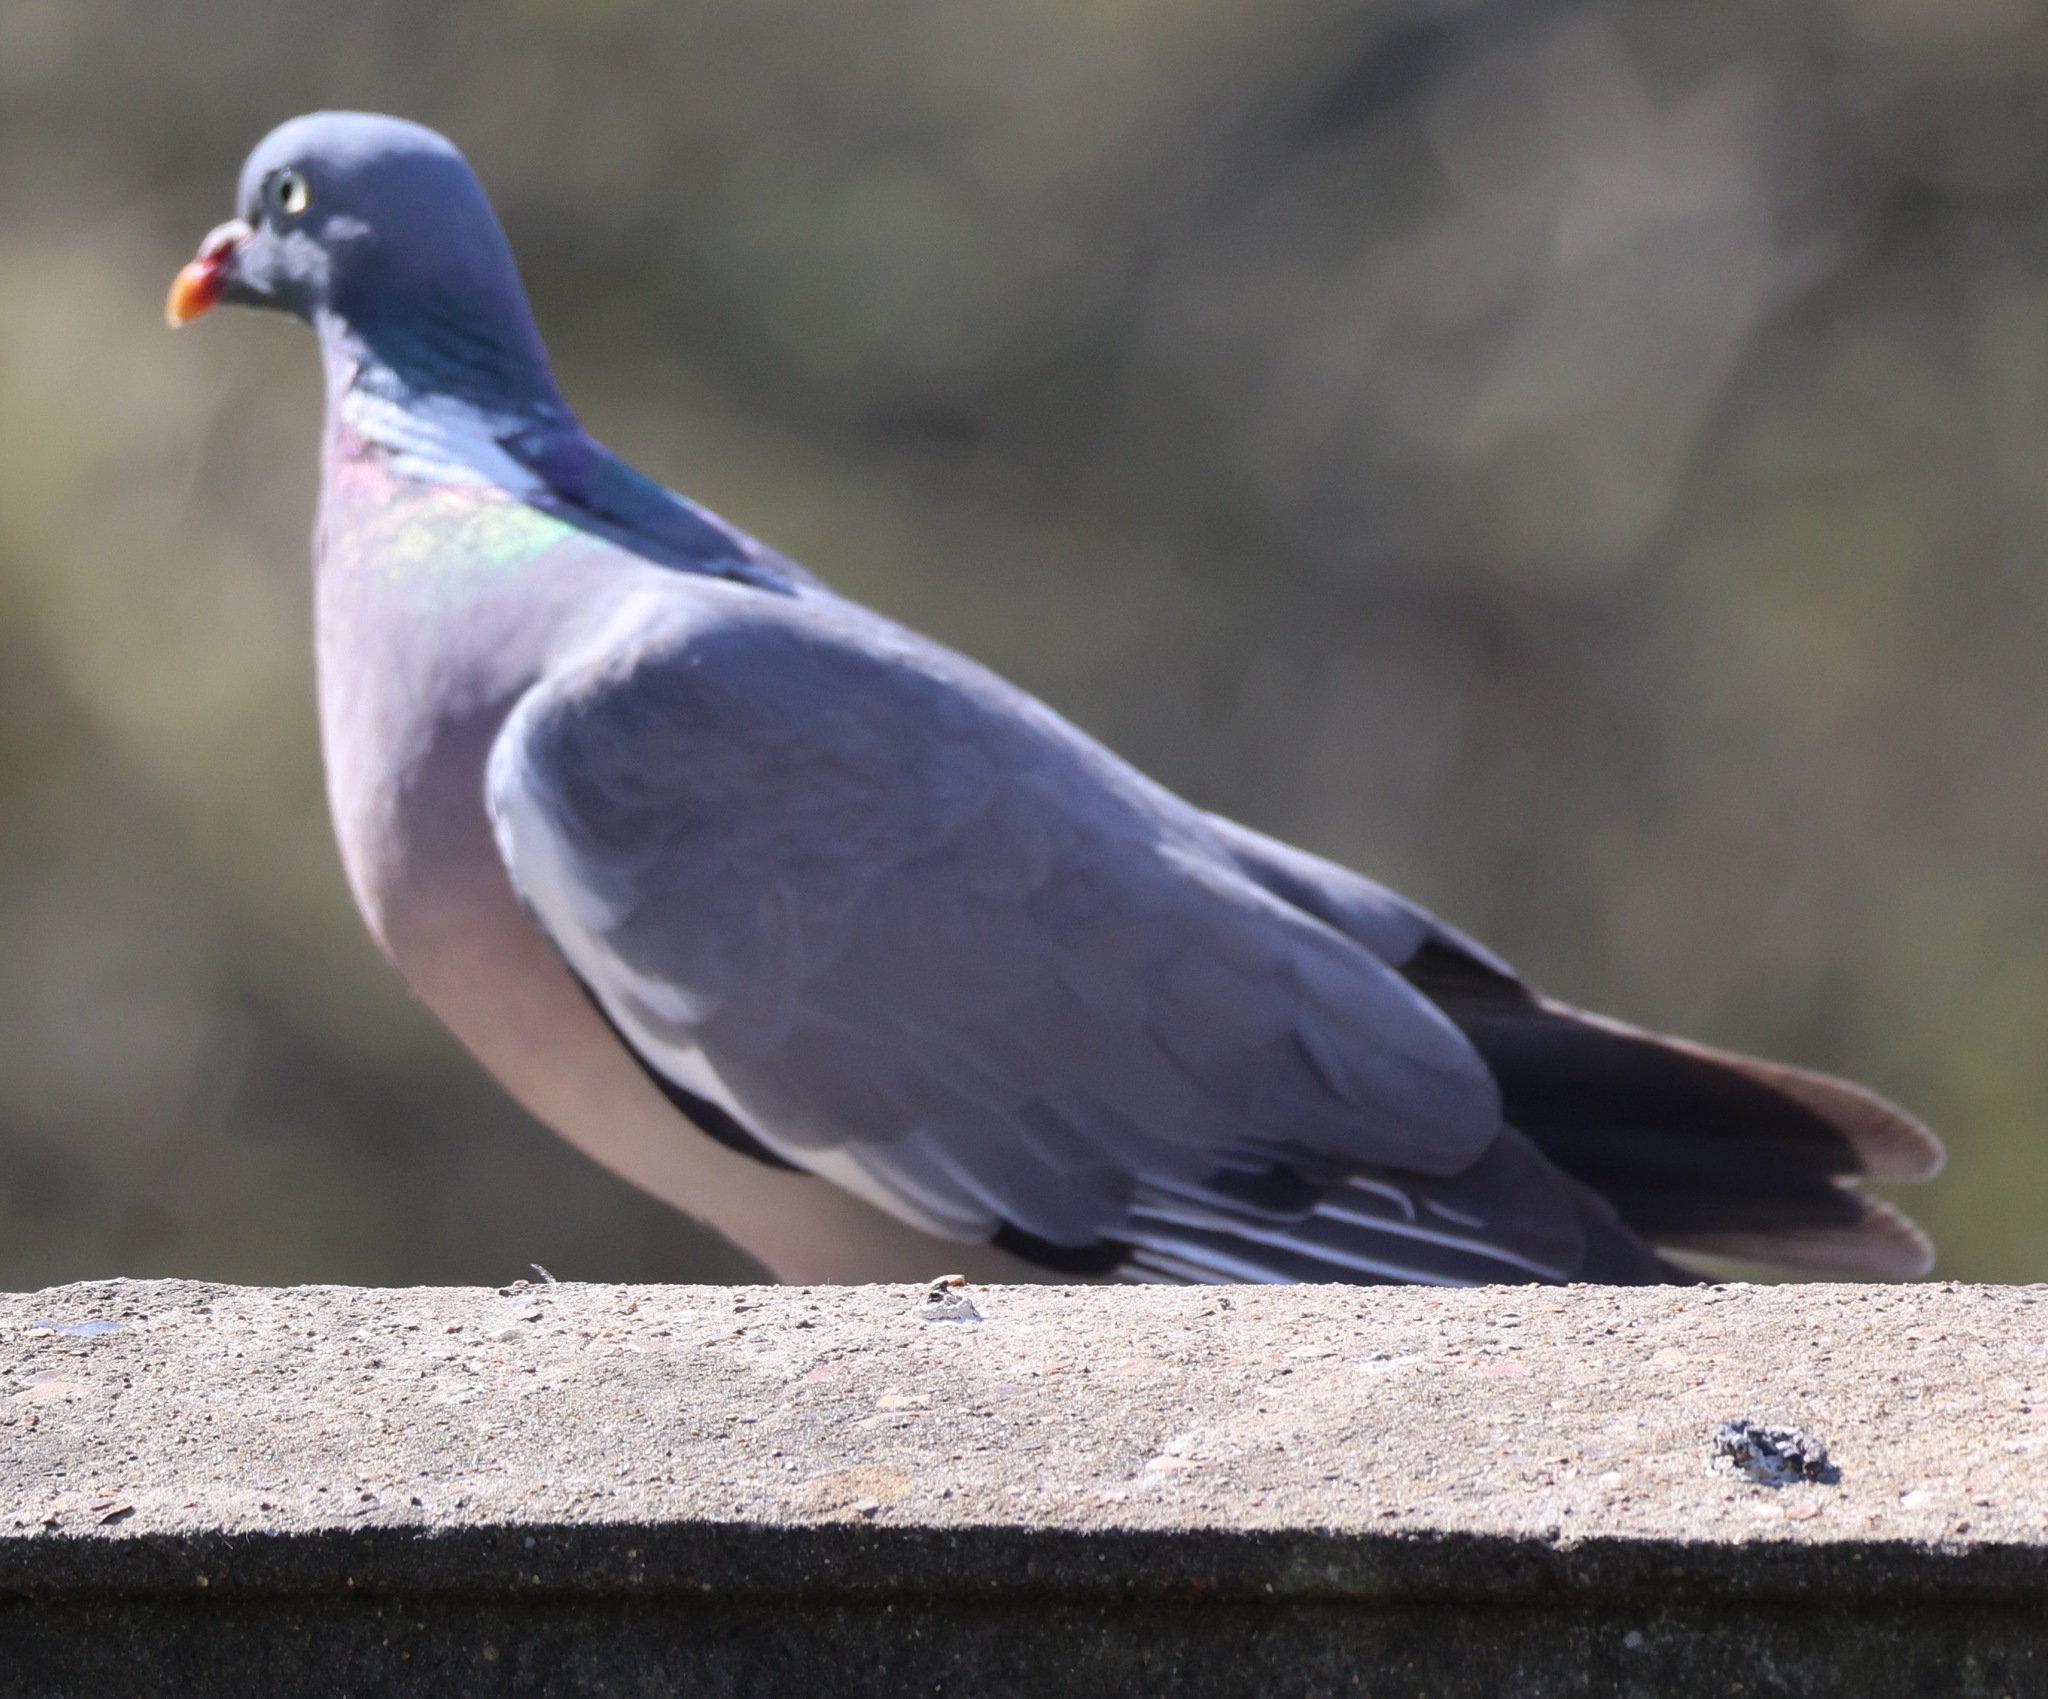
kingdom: Animalia
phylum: Chordata
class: Aves
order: Columbiformes
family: Columbidae
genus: Columba
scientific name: Columba palumbus
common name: Common wood pigeon
